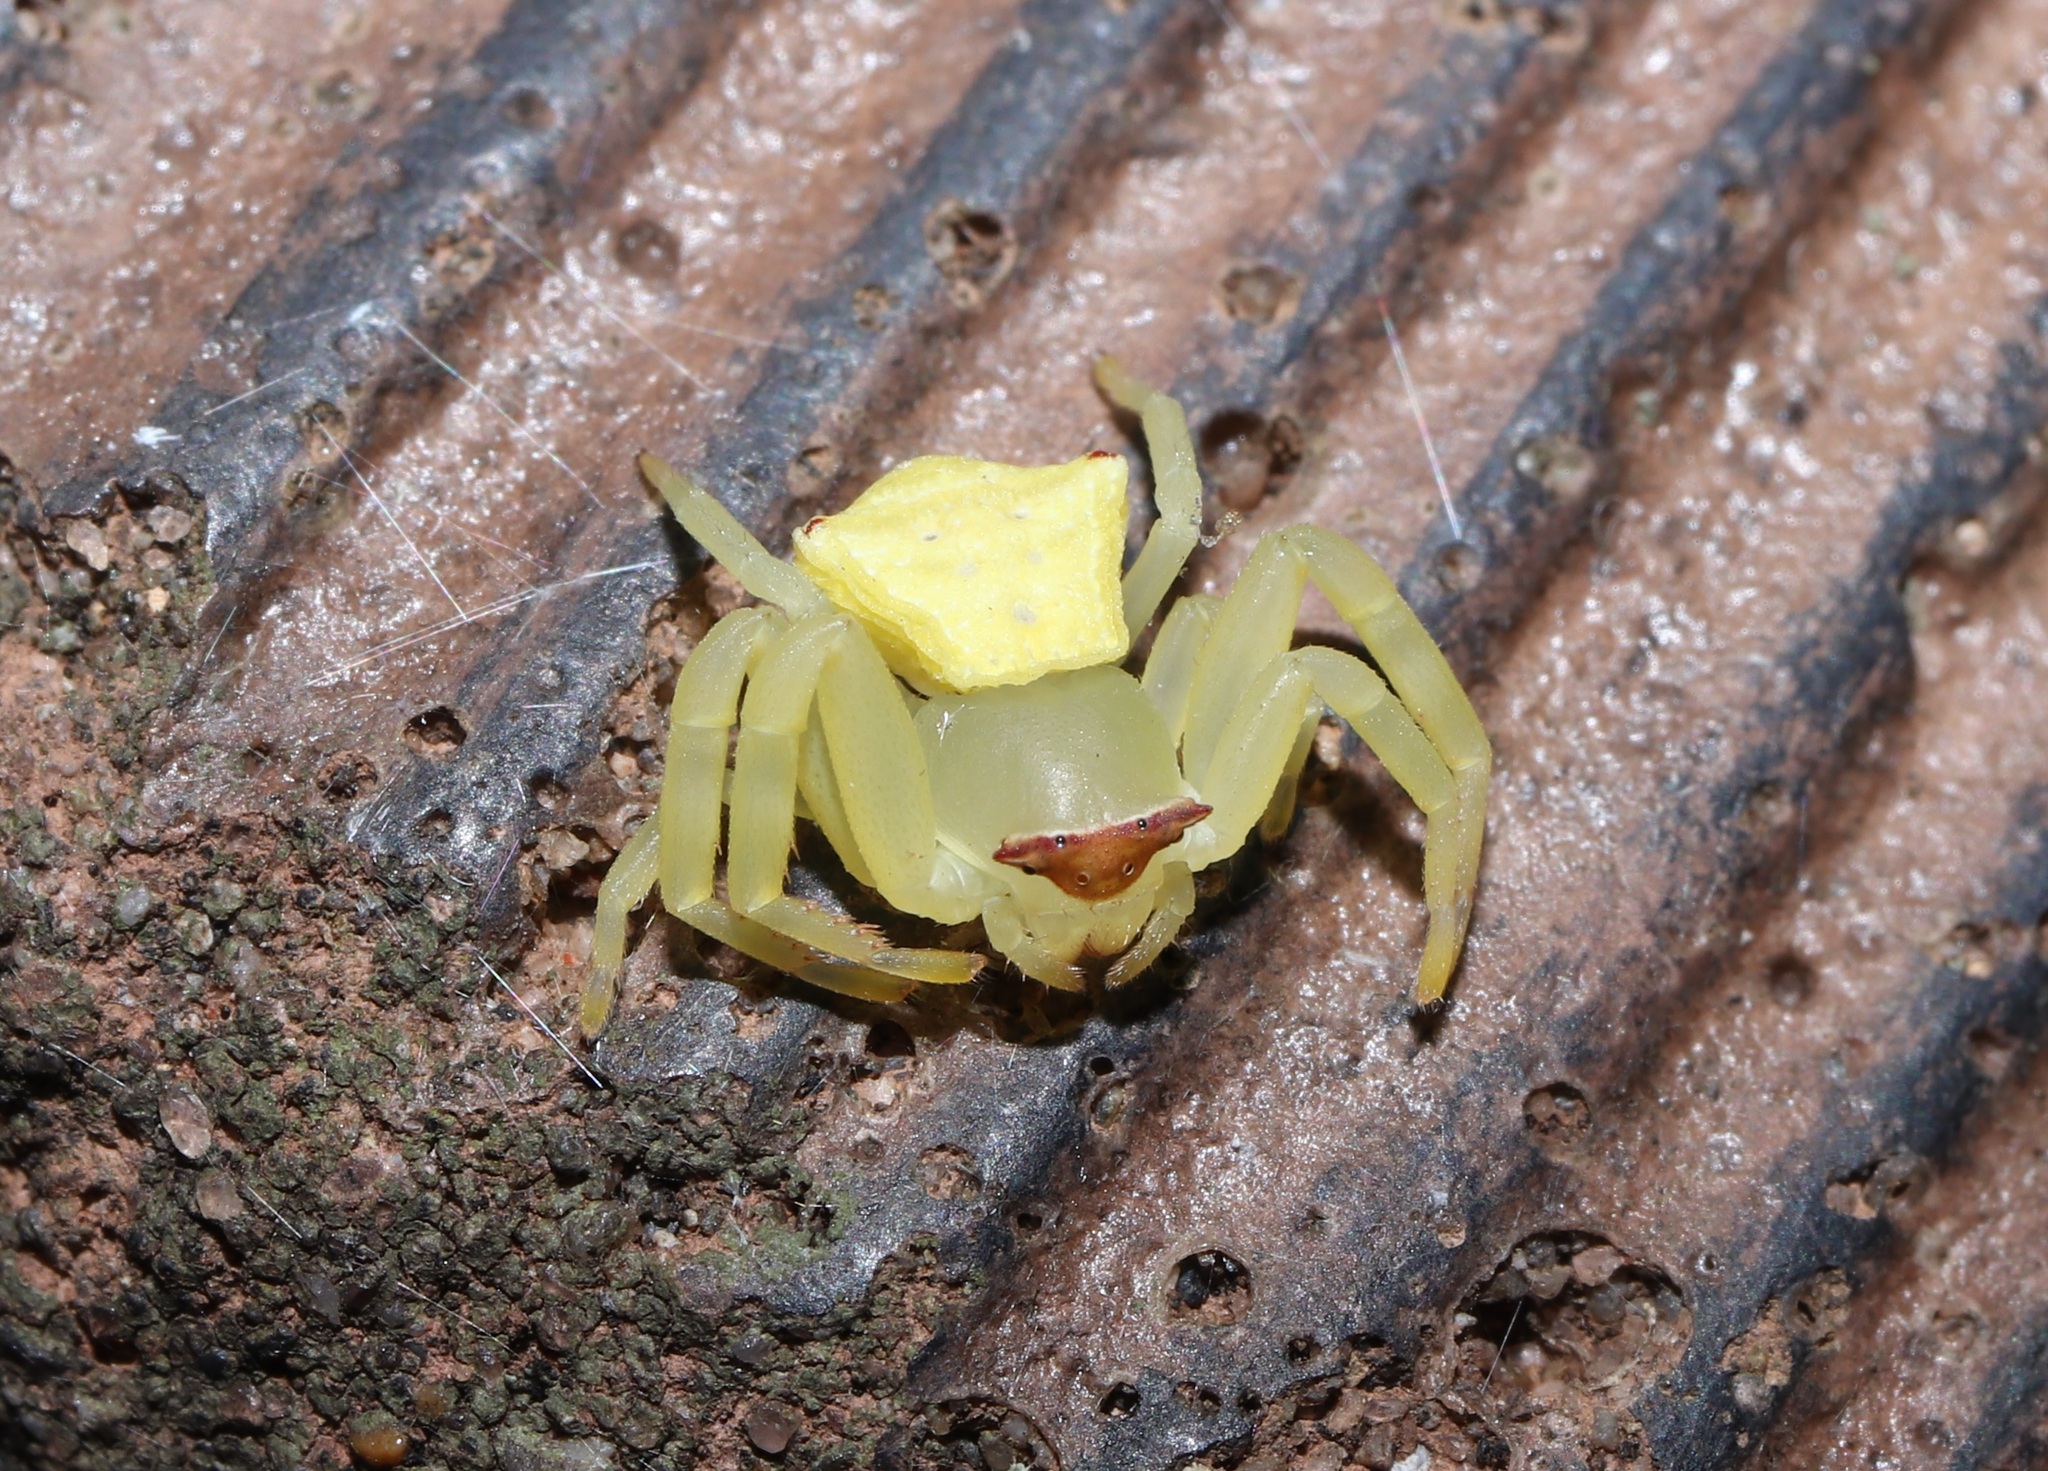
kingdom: Animalia
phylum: Arthropoda
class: Arachnida
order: Araneae
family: Thomisidae
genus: Thomisus
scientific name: Thomisus labefactus
